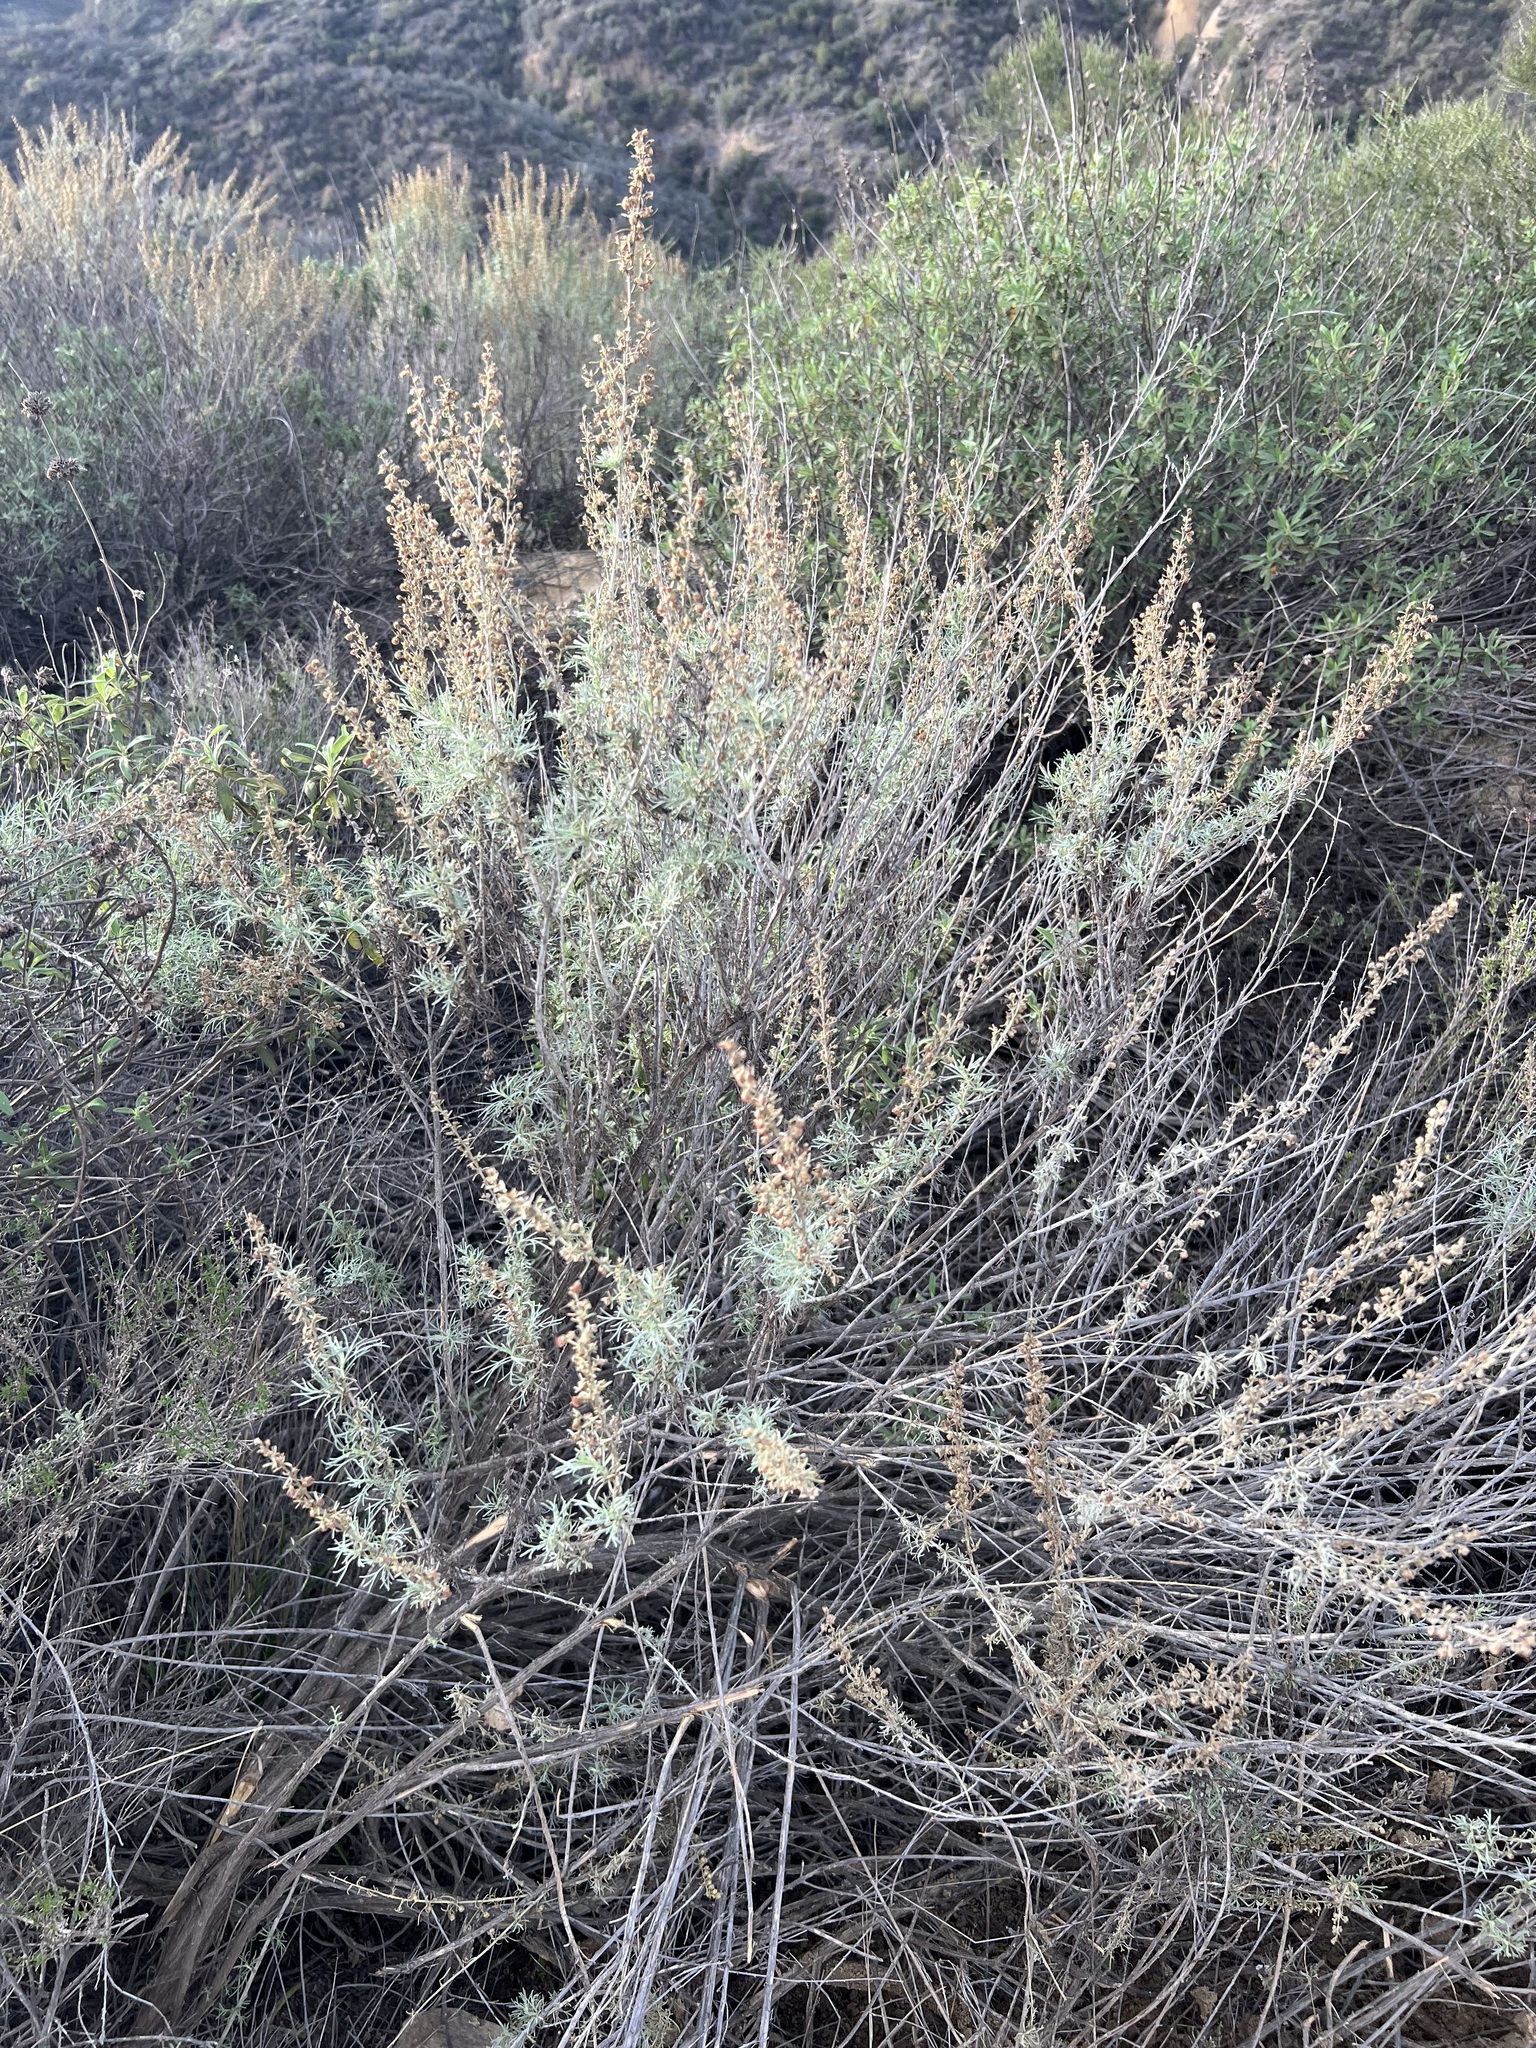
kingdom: Plantae
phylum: Tracheophyta
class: Magnoliopsida
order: Asterales
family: Asteraceae
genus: Artemisia
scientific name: Artemisia californica
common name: California sagebrush
